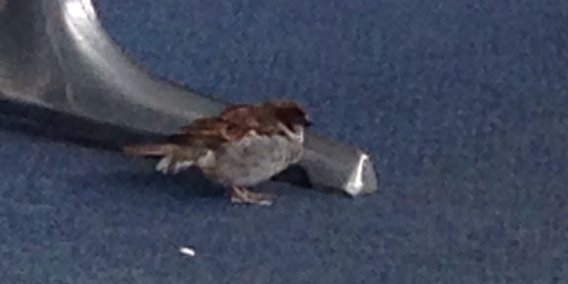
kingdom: Animalia
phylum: Chordata
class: Aves
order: Passeriformes
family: Passeridae
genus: Passer
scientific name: Passer domesticus
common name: House sparrow
